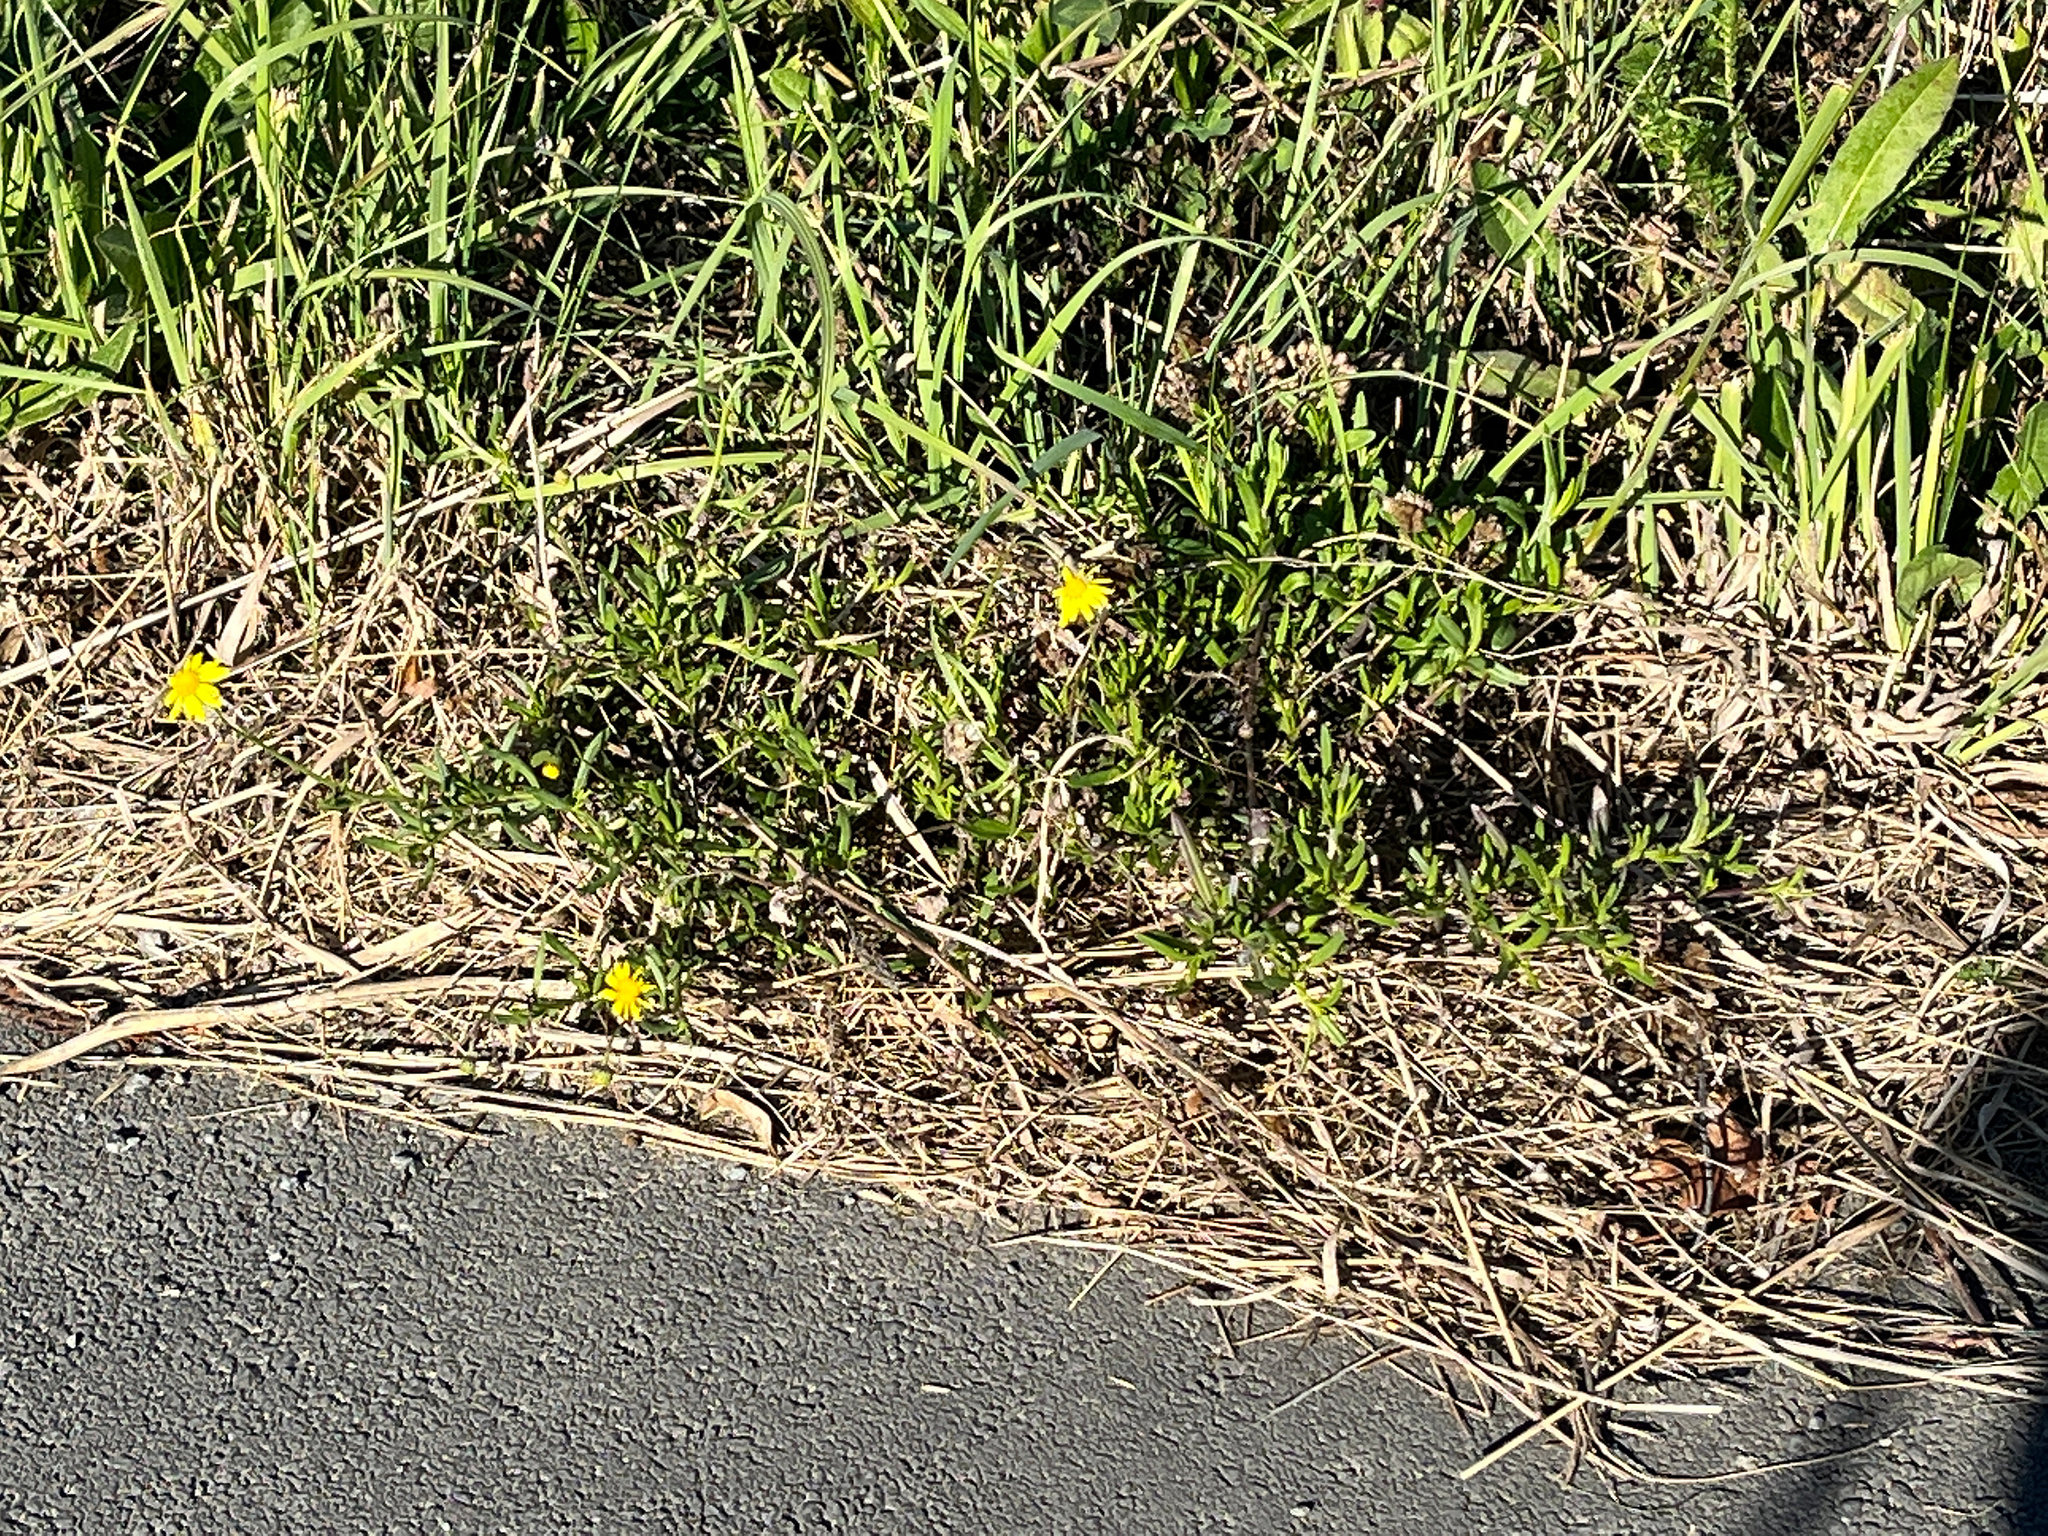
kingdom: Plantae
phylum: Tracheophyta
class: Magnoliopsida
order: Asterales
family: Asteraceae
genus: Senecio
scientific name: Senecio skirrhodon
